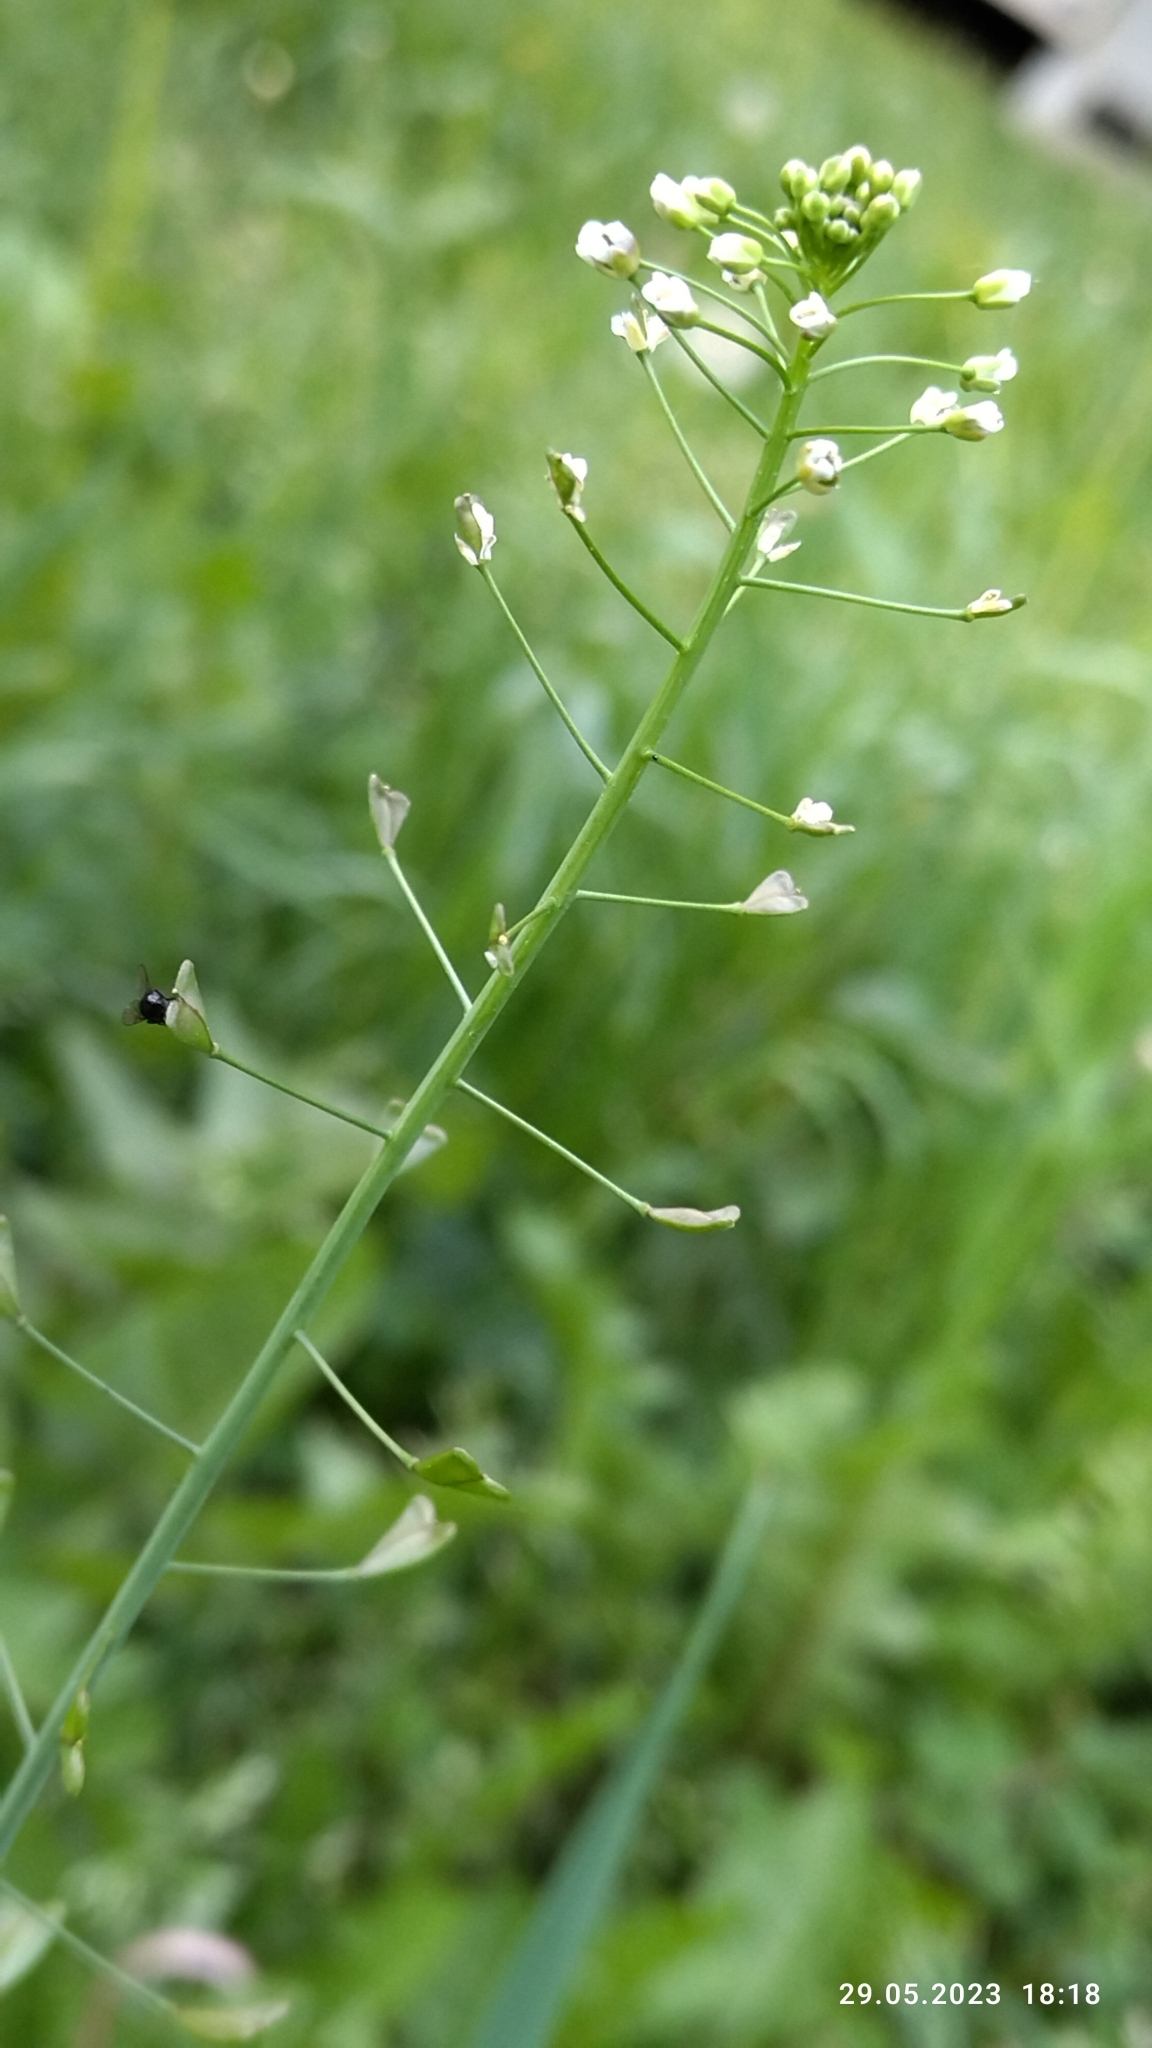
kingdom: Plantae
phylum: Tracheophyta
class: Magnoliopsida
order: Brassicales
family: Brassicaceae
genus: Capsella
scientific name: Capsella bursa-pastoris
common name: Shepherd's purse
